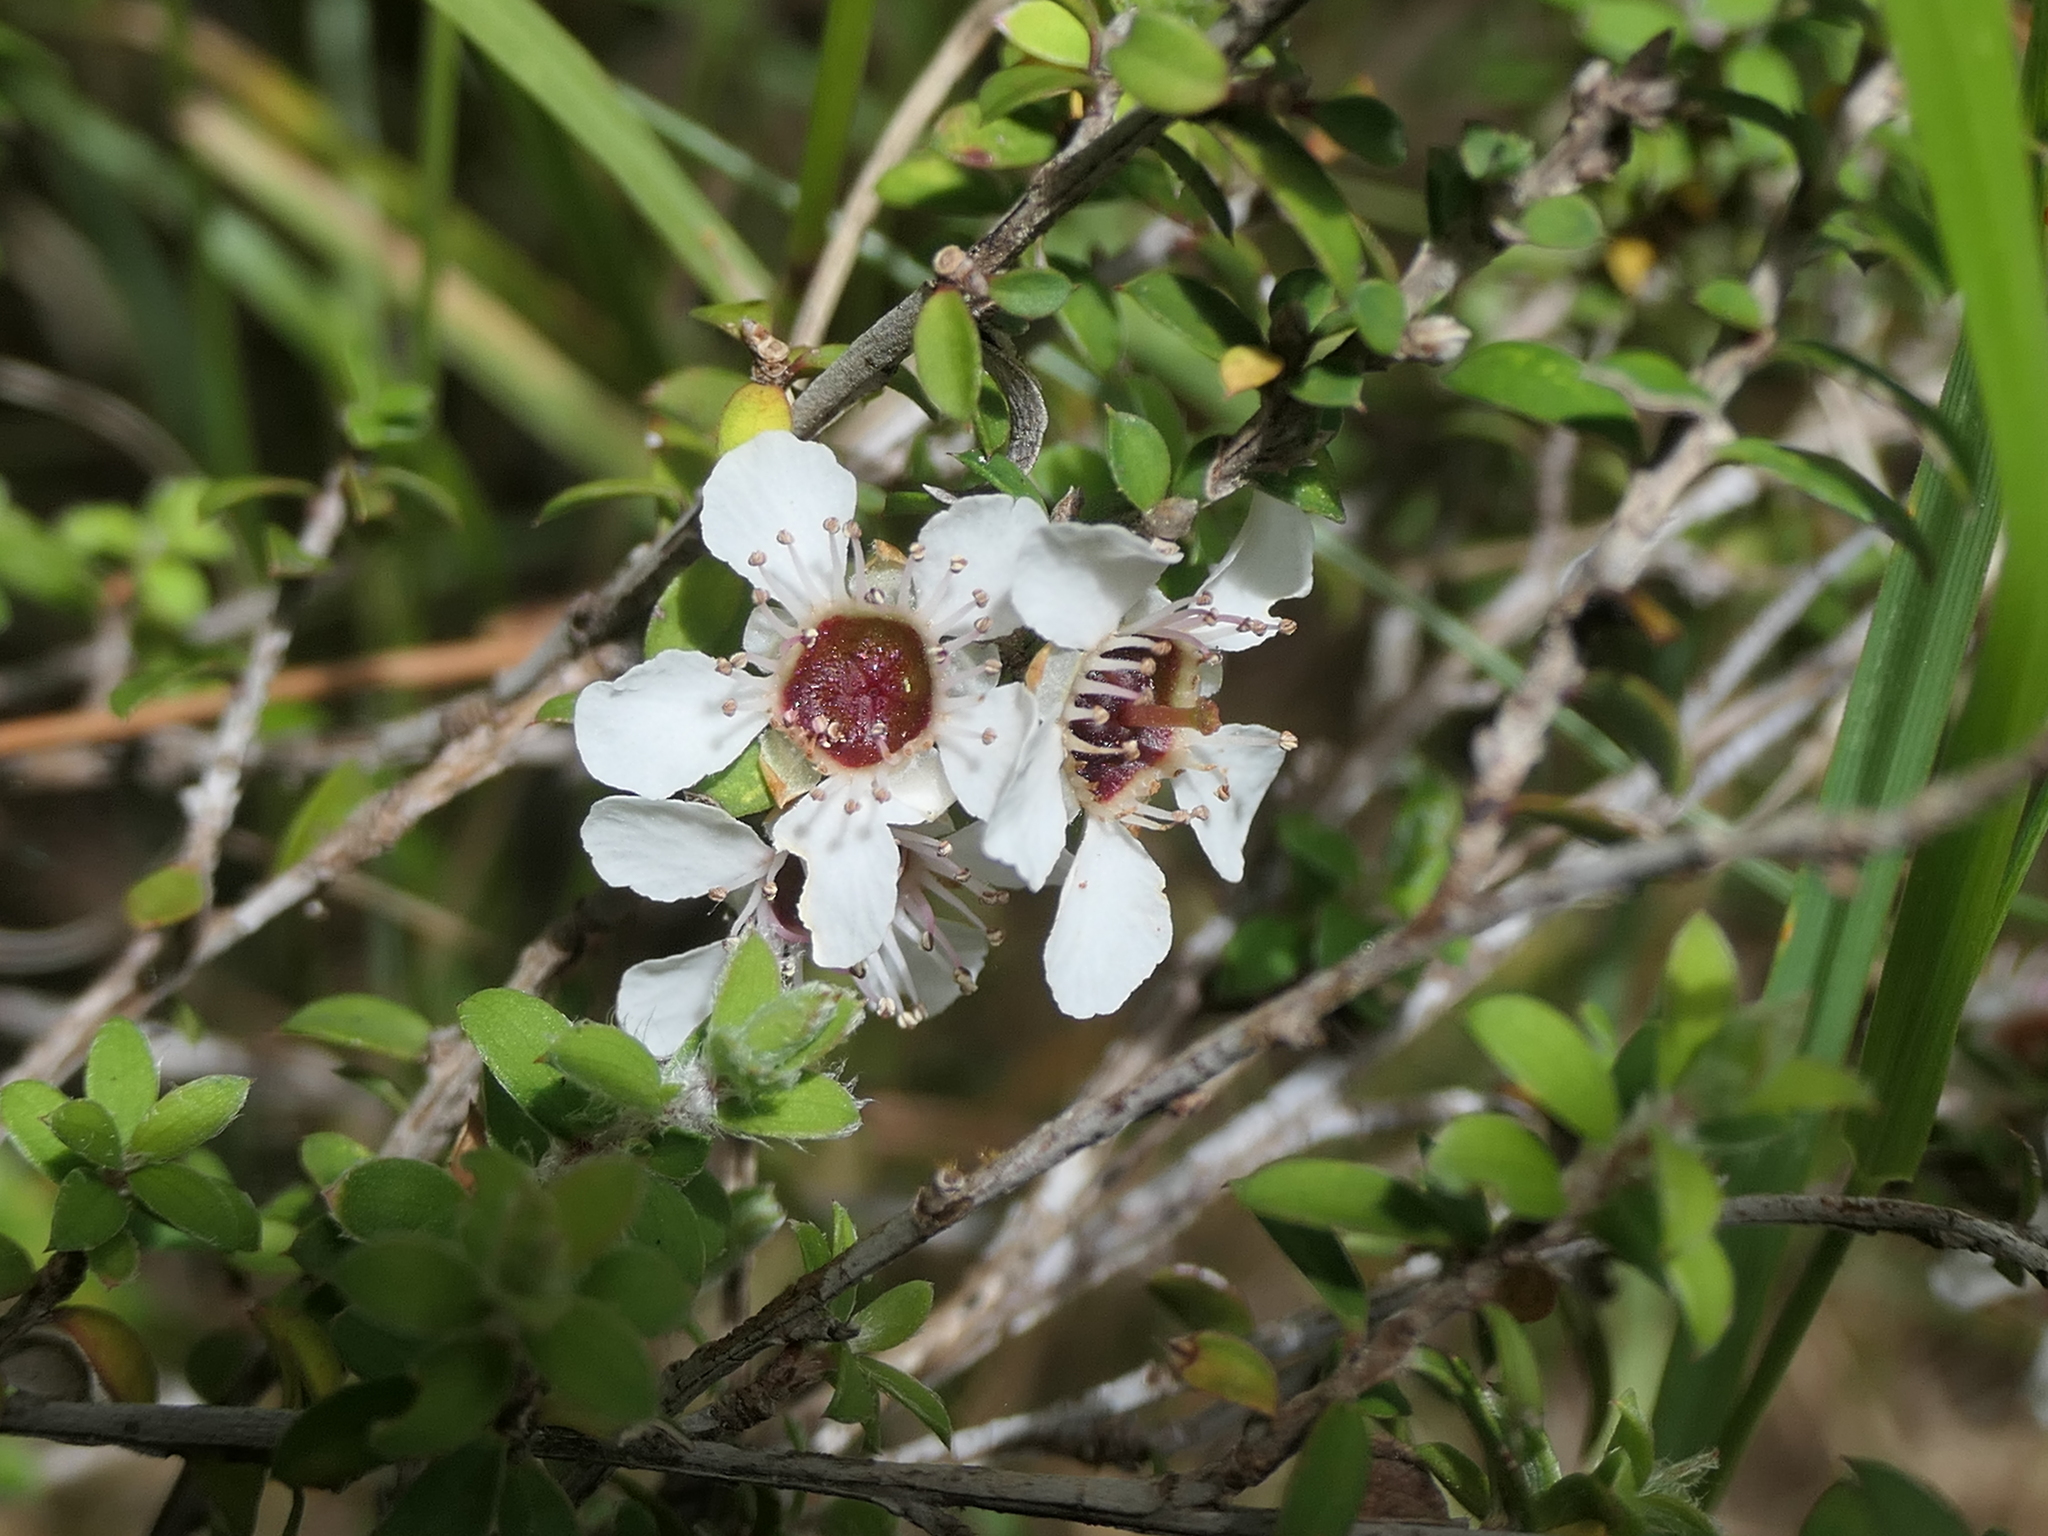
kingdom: Plantae
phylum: Tracheophyta
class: Magnoliopsida
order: Myrtales
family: Myrtaceae
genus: Leptospermum
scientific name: Leptospermum scoparium
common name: Broom tea-tree
